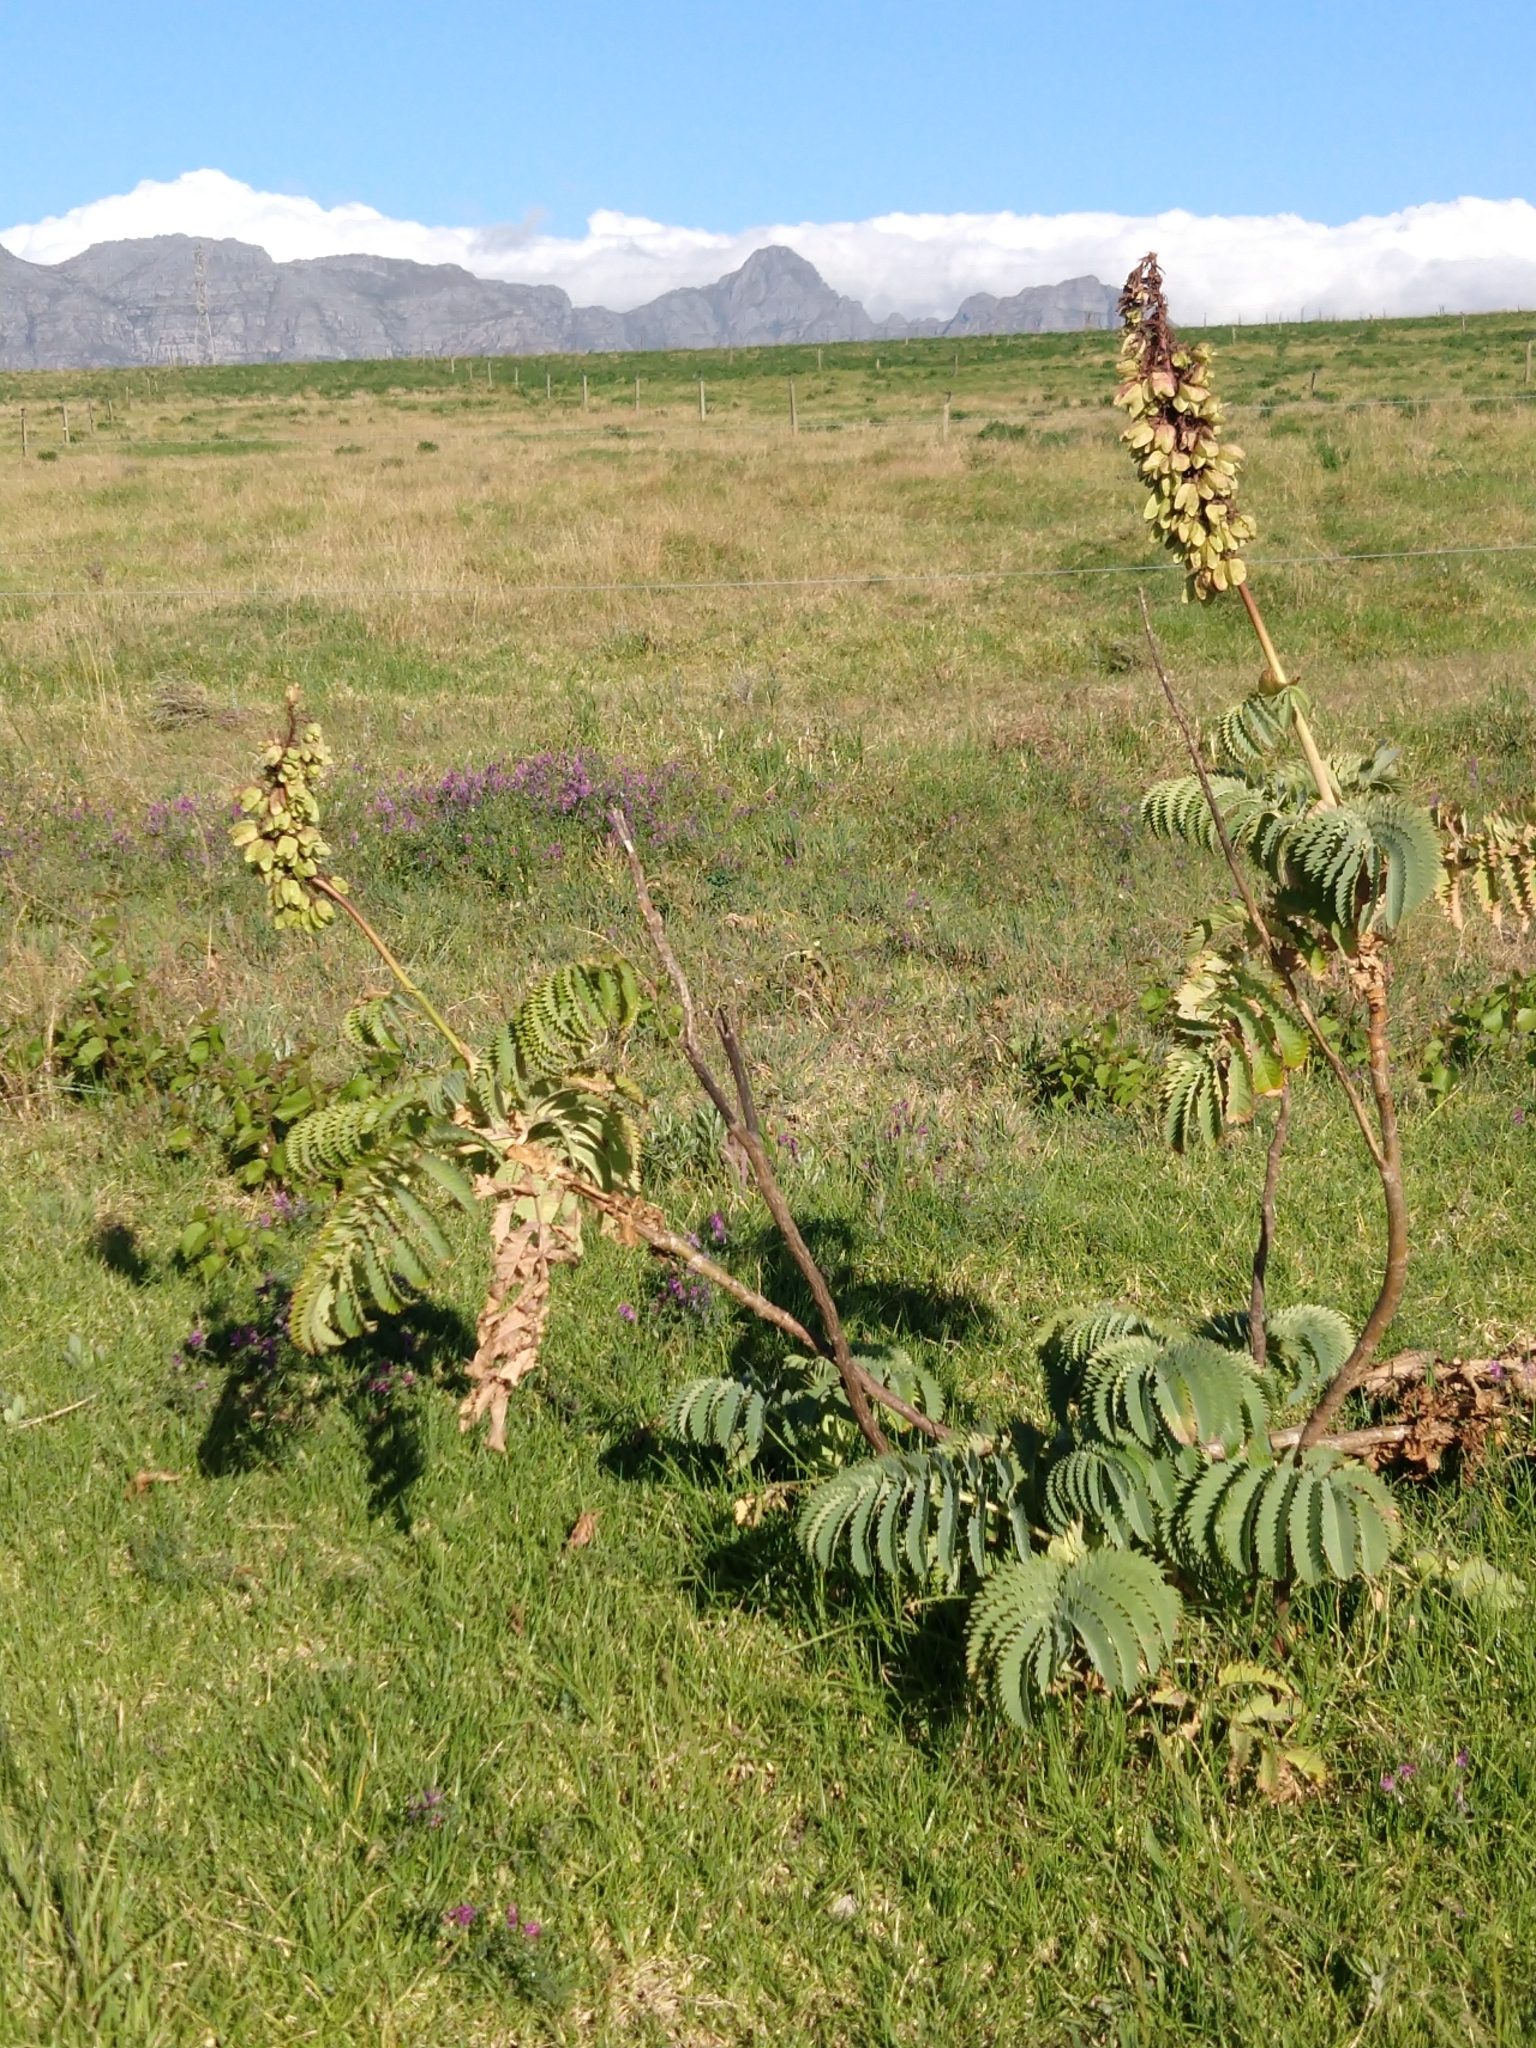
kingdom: Plantae
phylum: Tracheophyta
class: Magnoliopsida
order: Geraniales
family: Melianthaceae
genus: Melianthus
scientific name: Melianthus major
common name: Honey-flower
